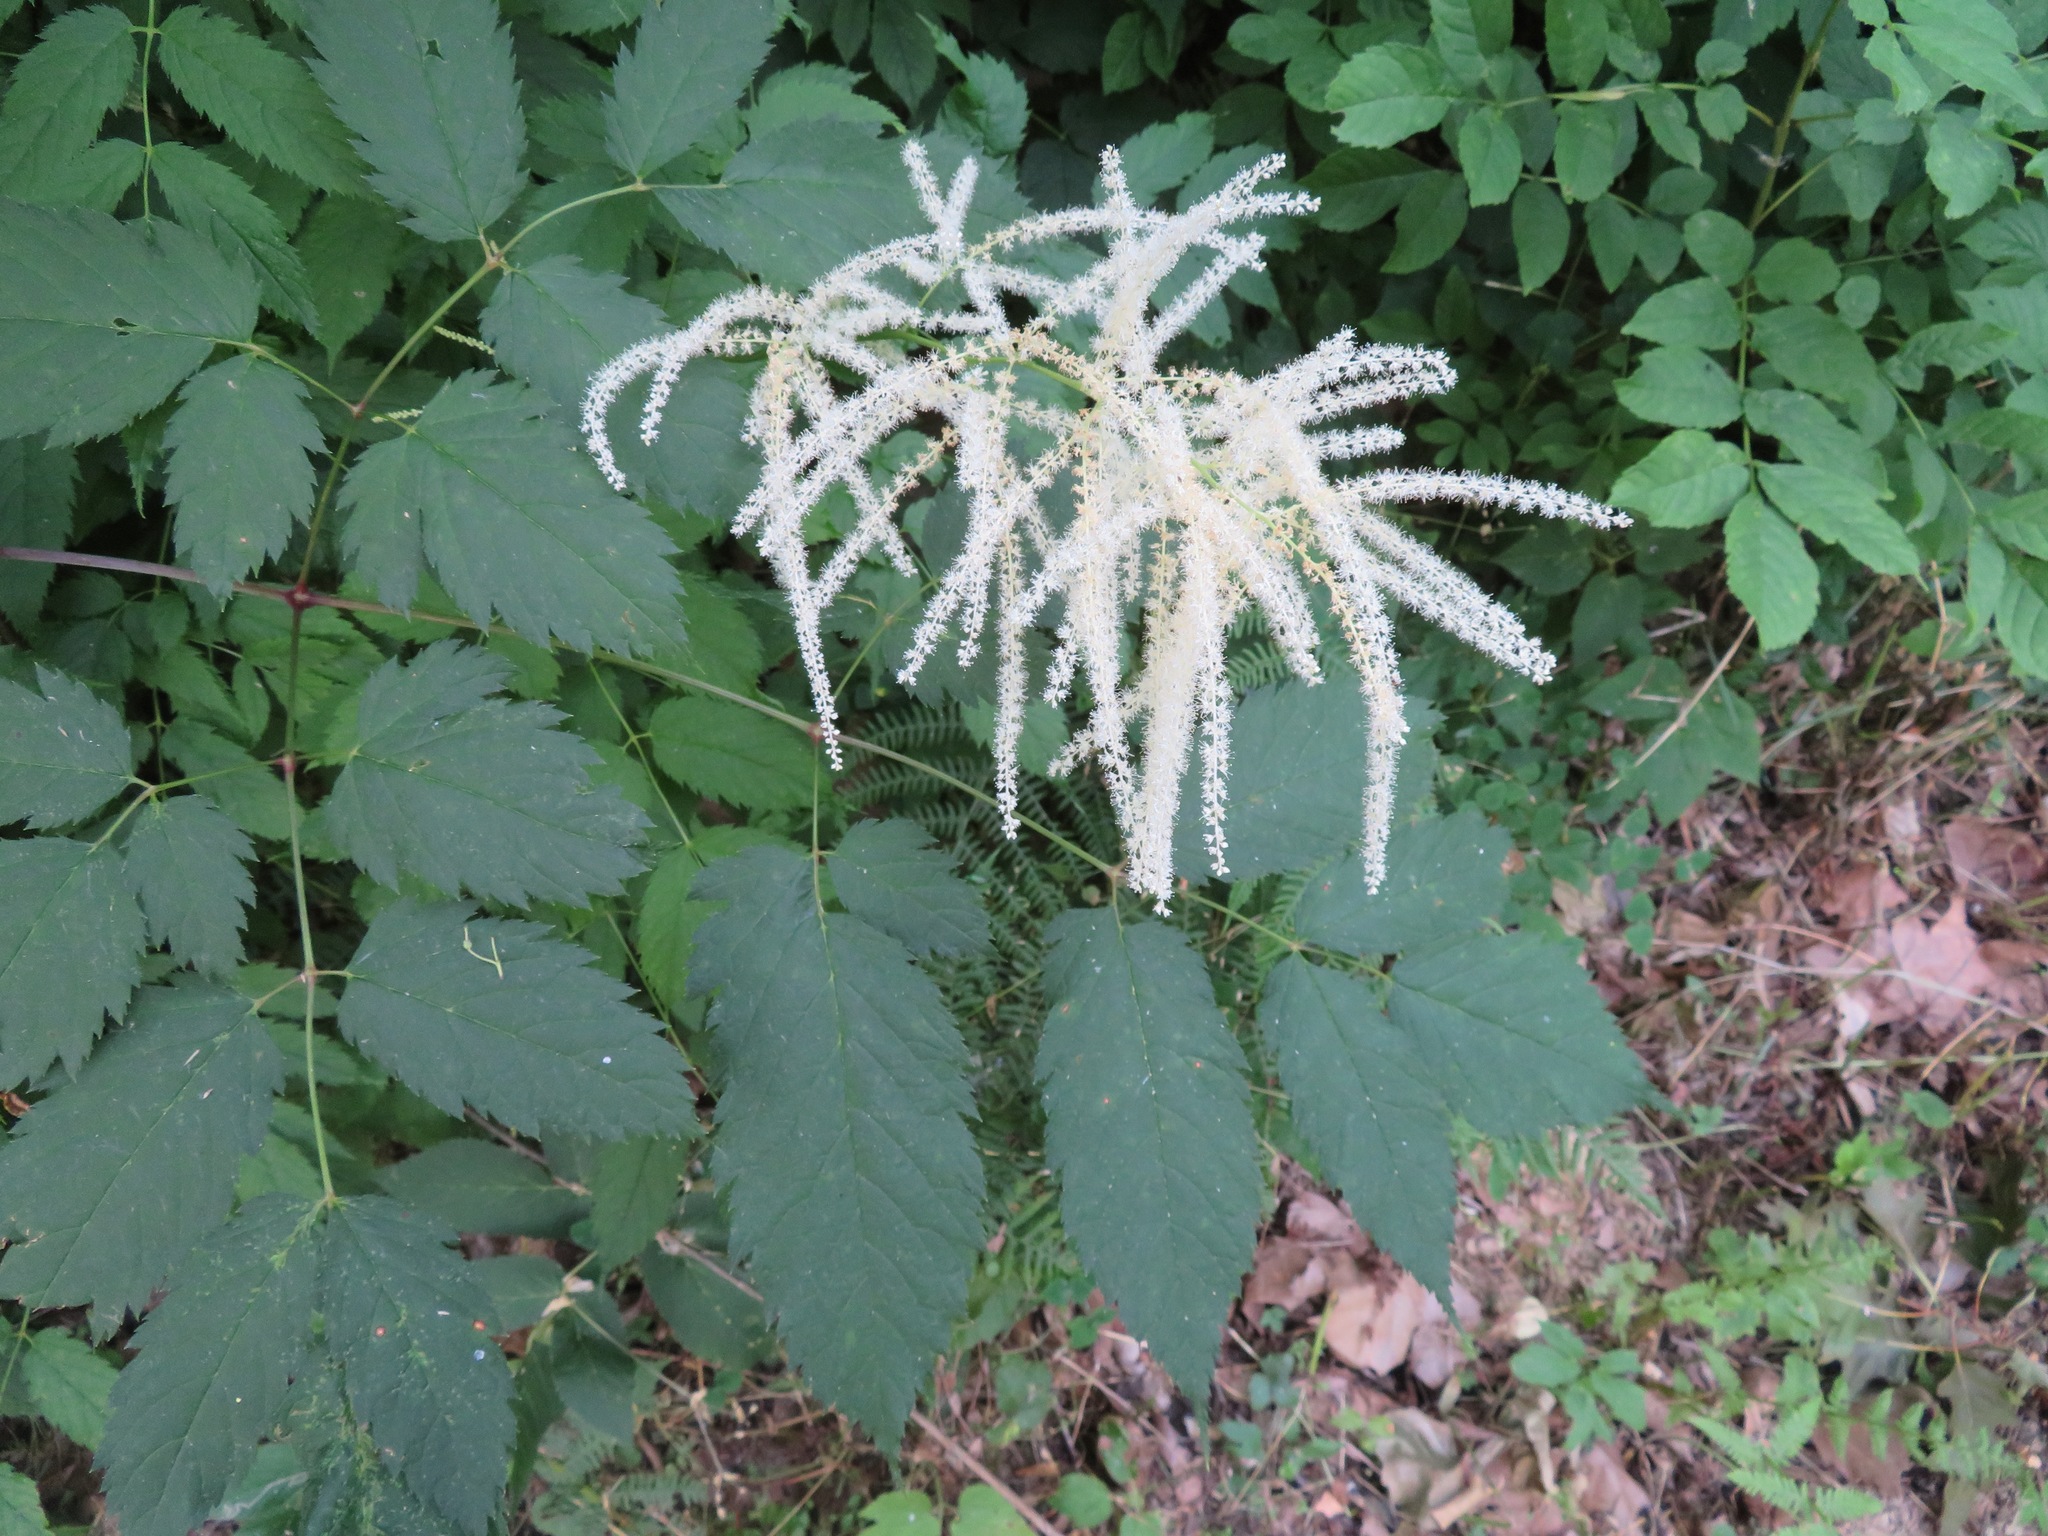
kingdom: Plantae
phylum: Tracheophyta
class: Magnoliopsida
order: Rosales
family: Rosaceae
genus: Aruncus
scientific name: Aruncus dioicus
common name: Buck's-beard
